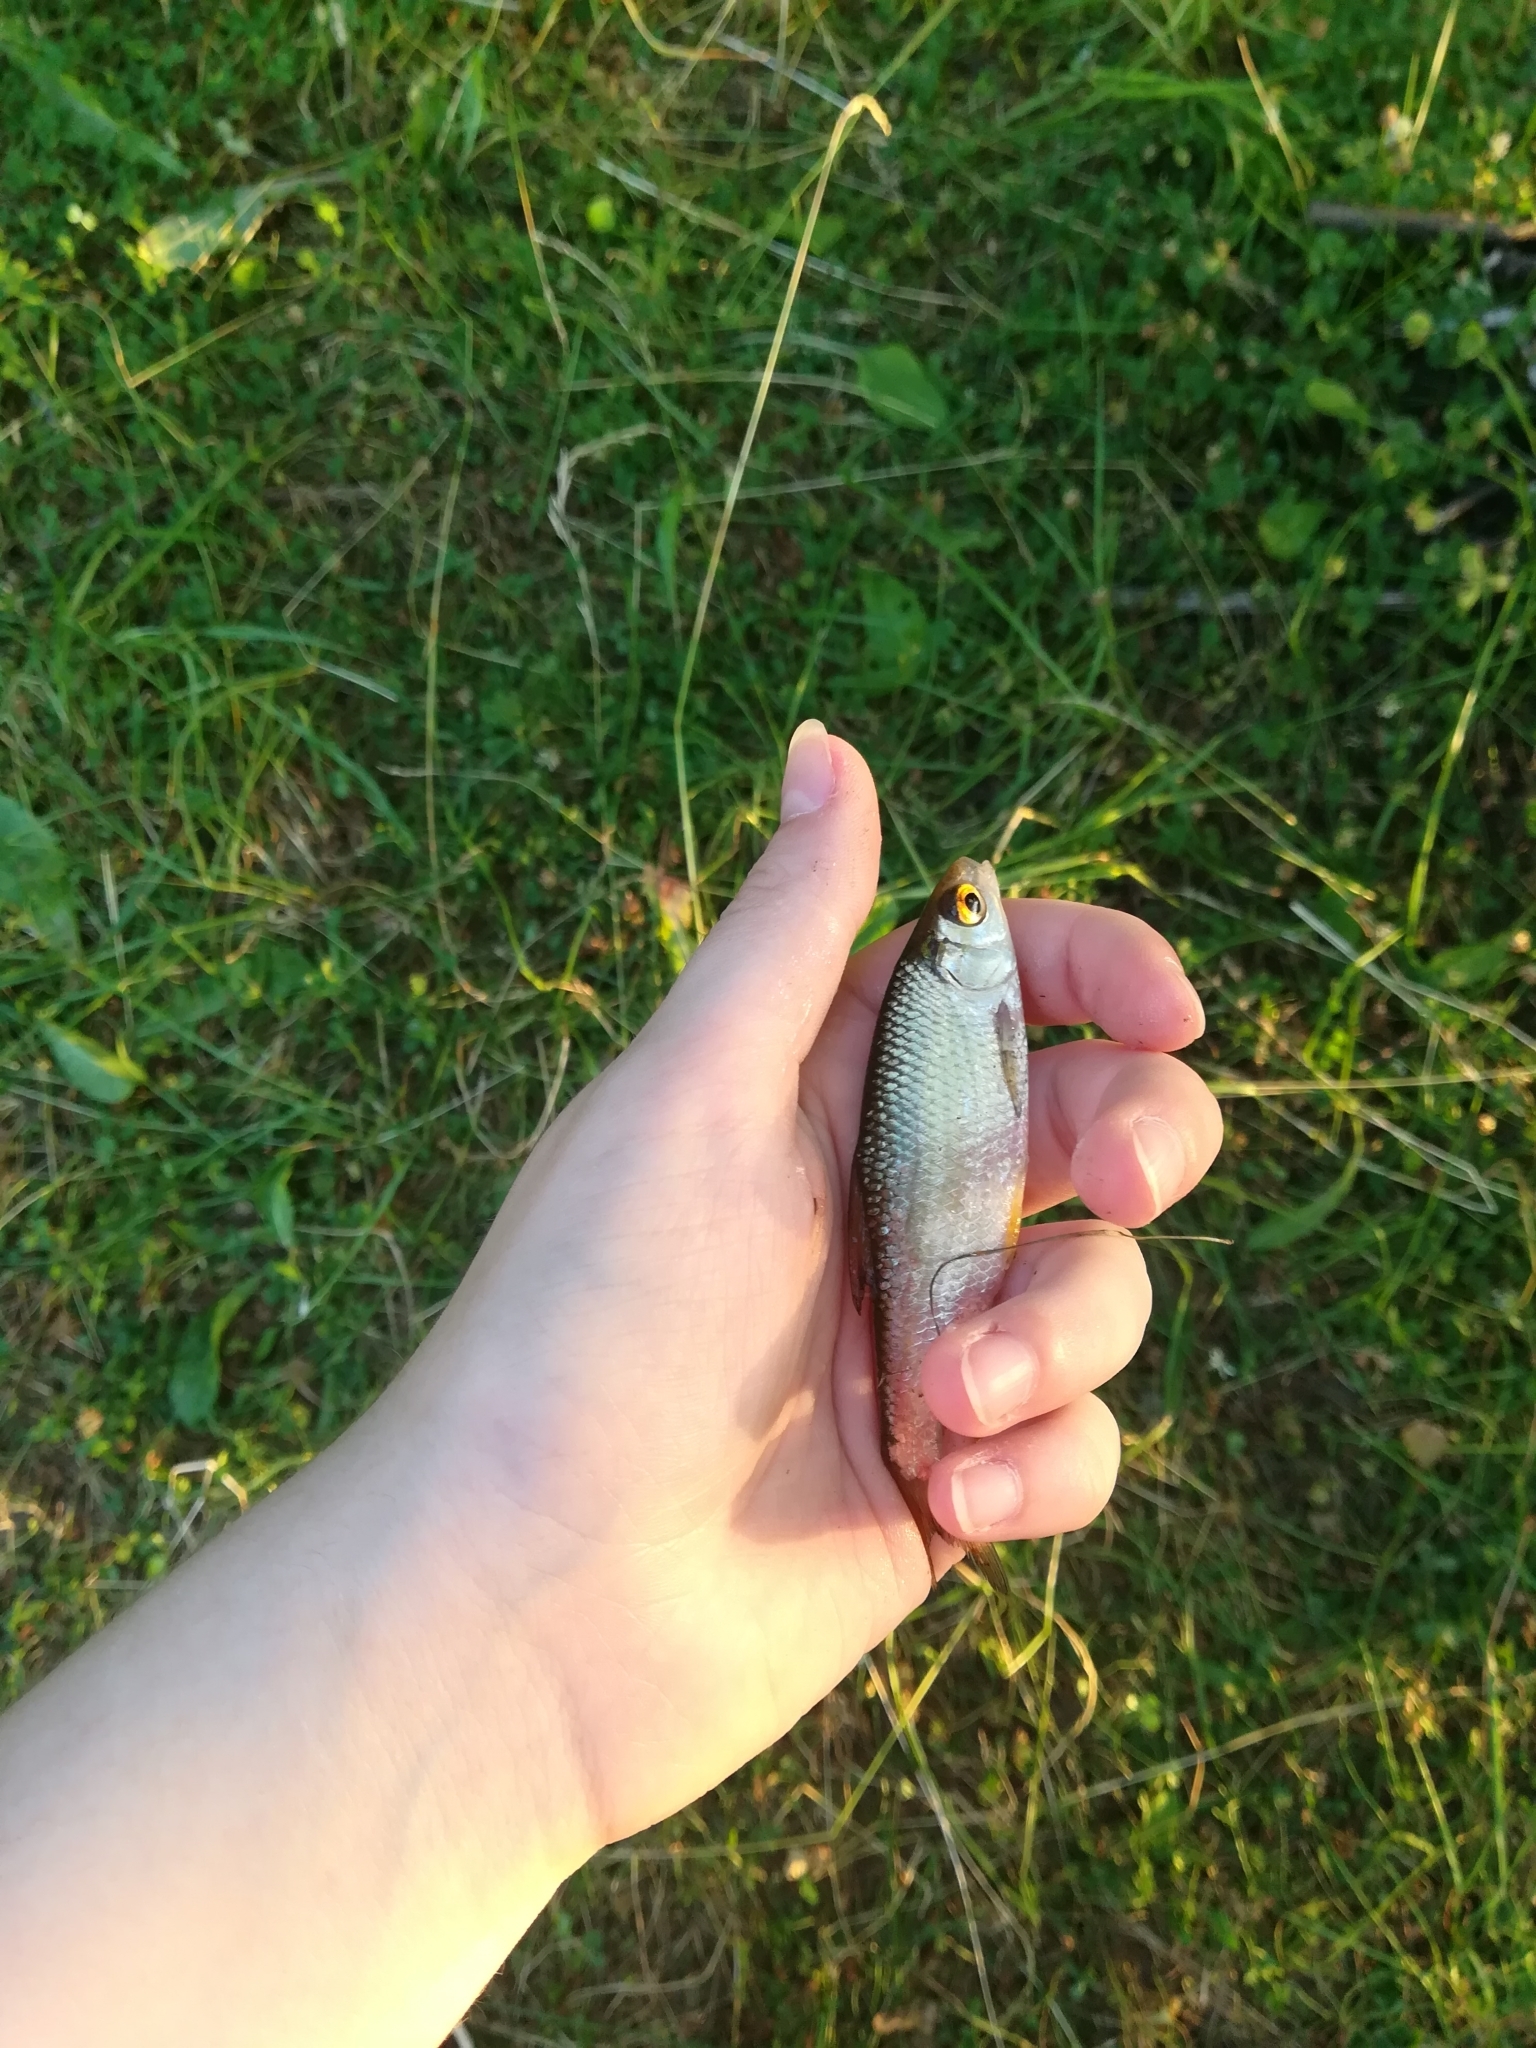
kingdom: Animalia
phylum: Chordata
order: Cypriniformes
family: Cyprinidae
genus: Rutilus
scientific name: Rutilus rutilus
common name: Roach
